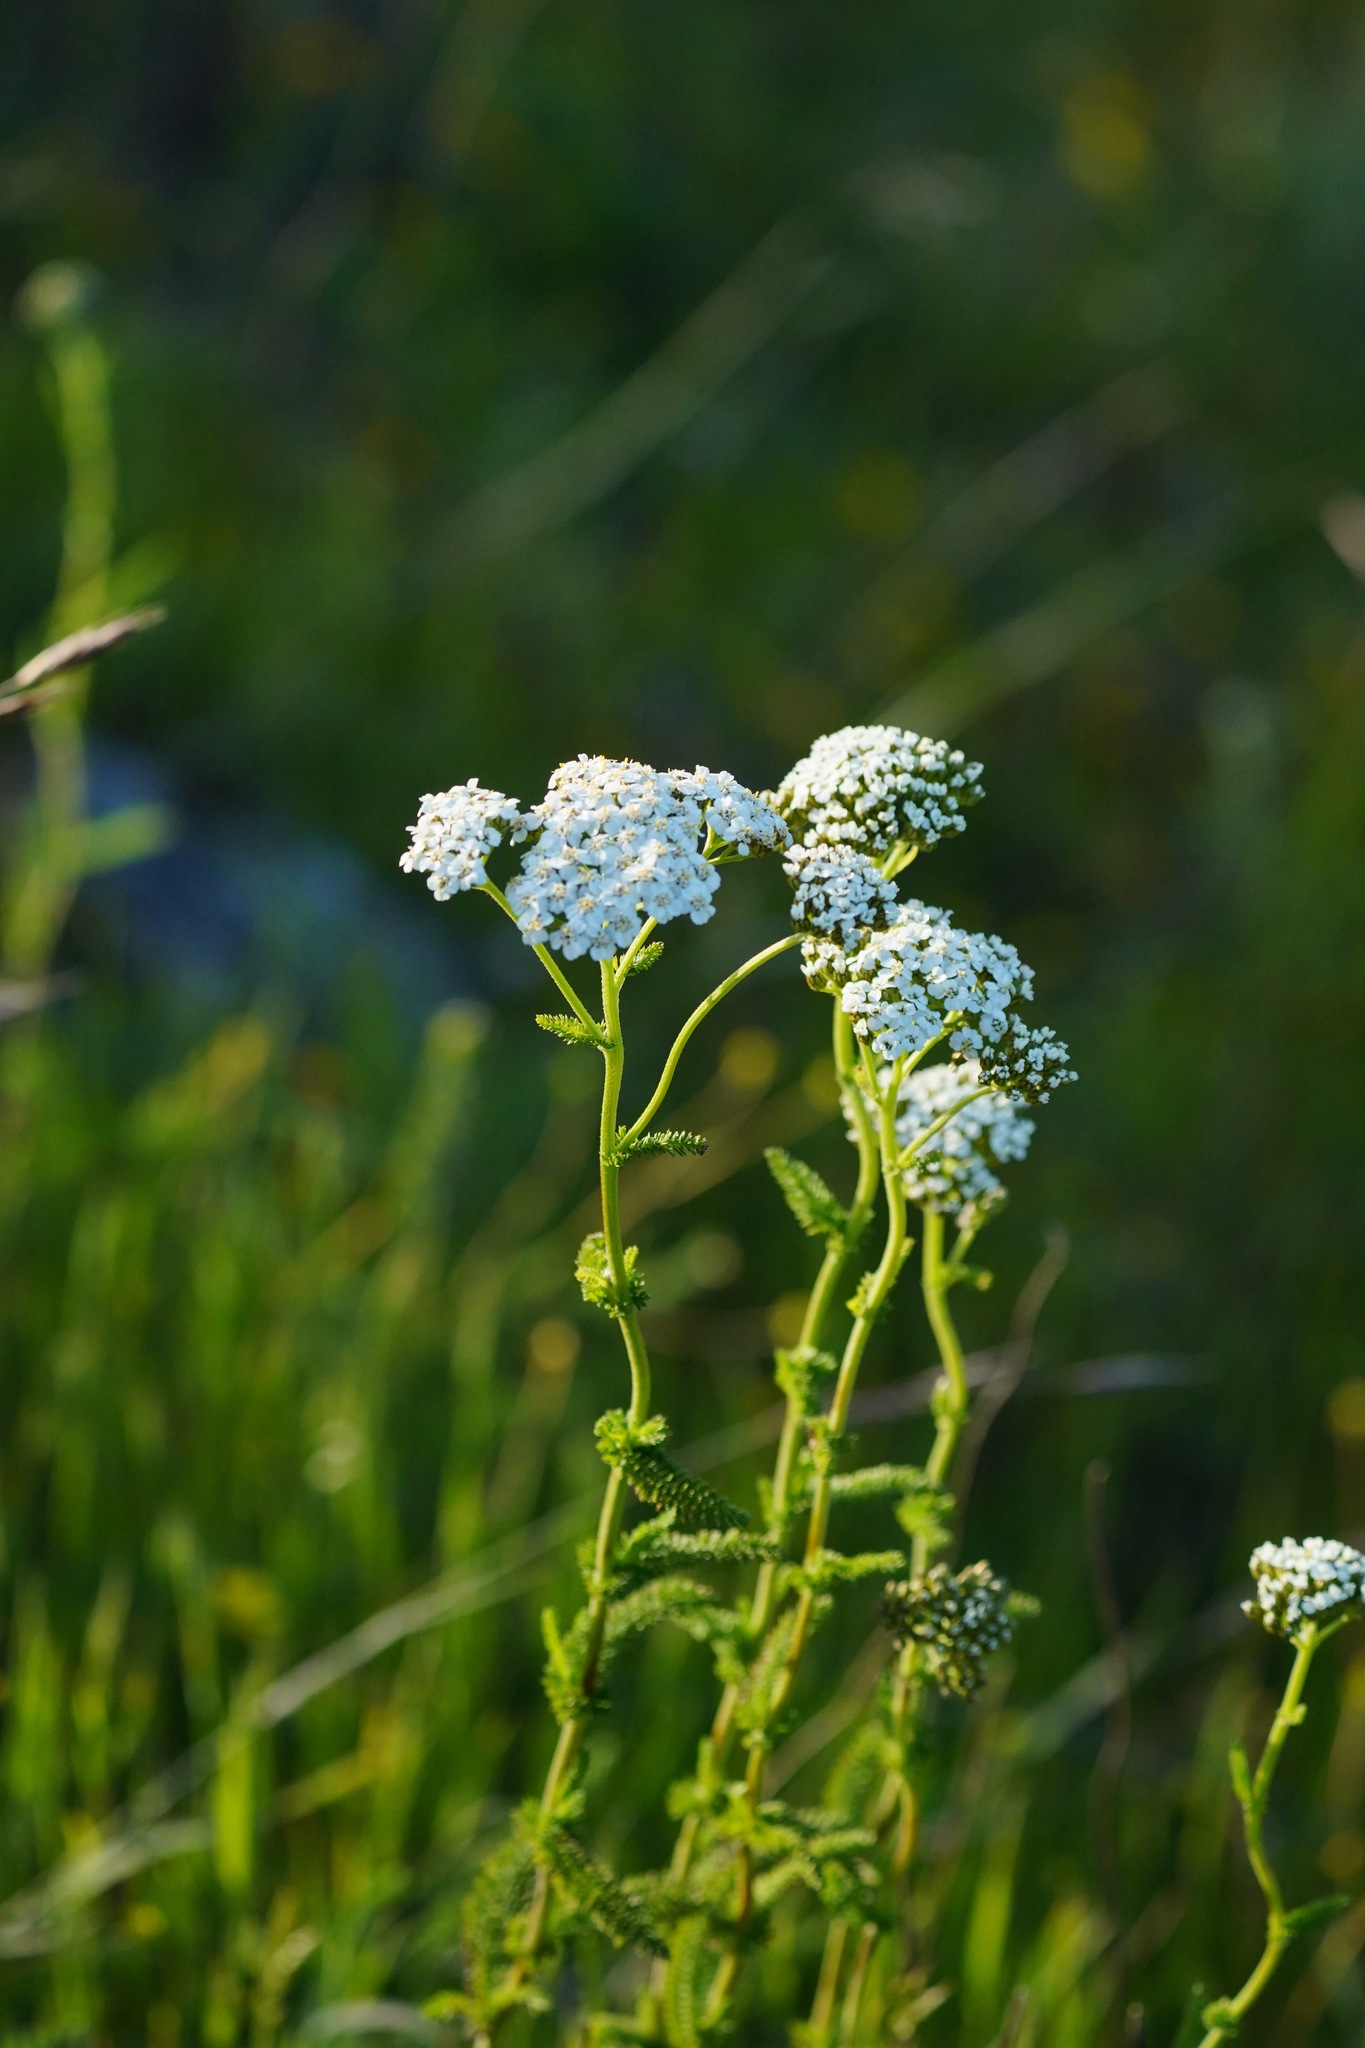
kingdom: Plantae
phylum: Tracheophyta
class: Magnoliopsida
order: Asterales
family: Asteraceae
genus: Achillea
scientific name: Achillea millefolium
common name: Yarrow
